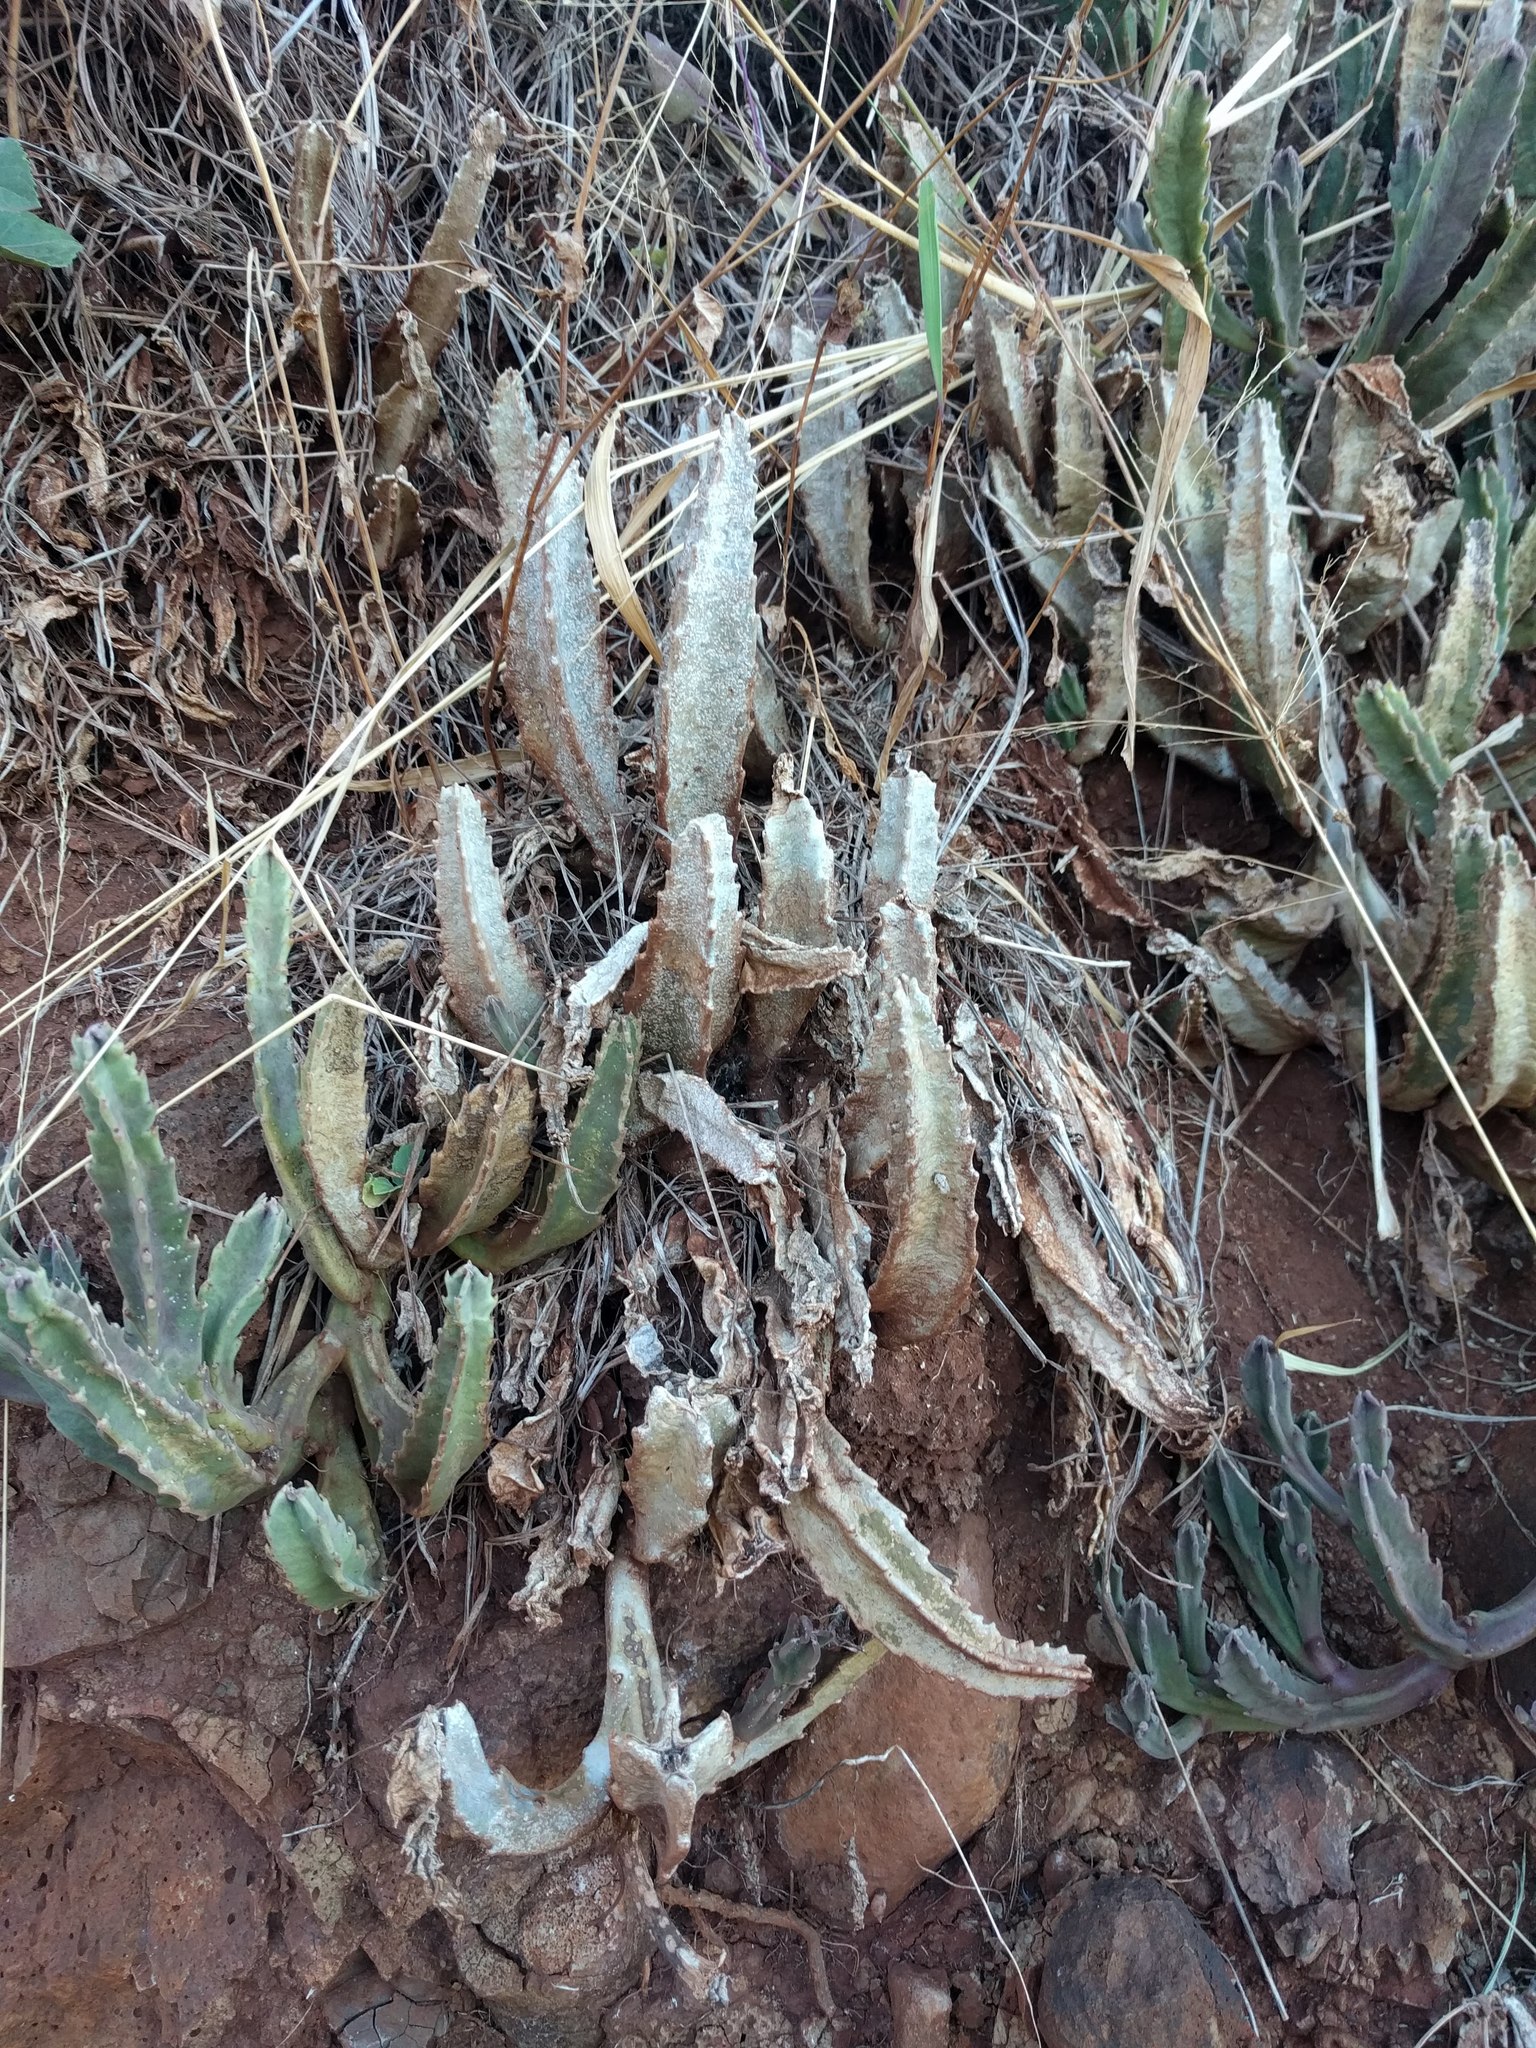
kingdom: Plantae
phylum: Tracheophyta
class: Magnoliopsida
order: Gentianales
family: Apocynaceae
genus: Ceropegia
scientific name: Ceropegia gigantea
